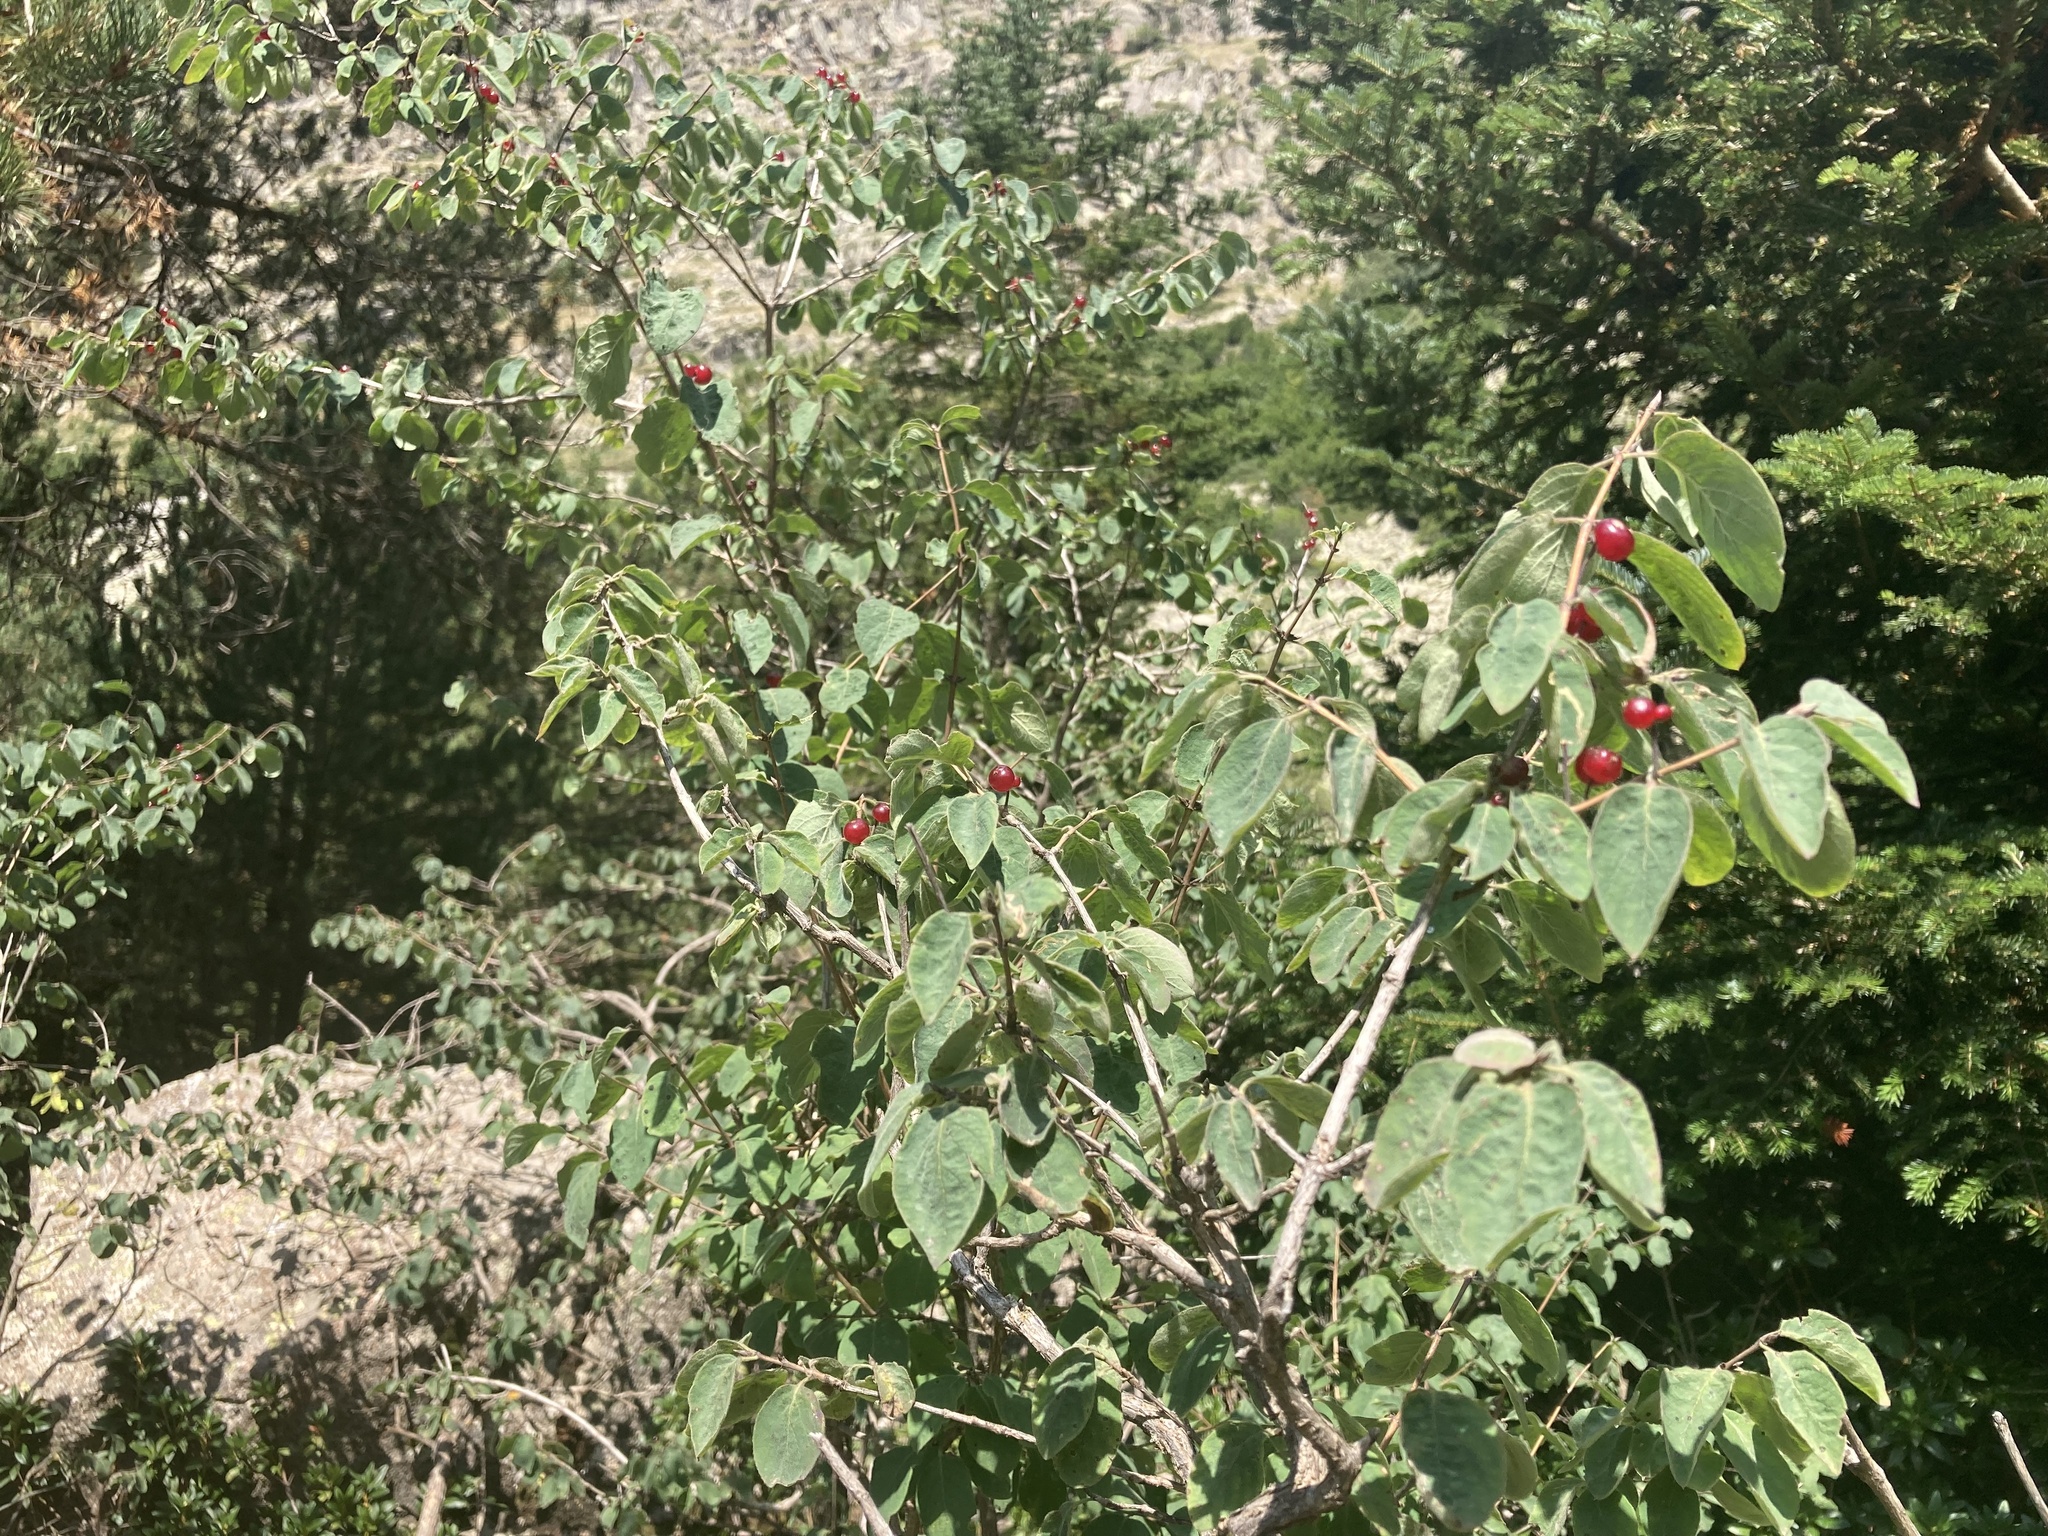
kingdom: Plantae
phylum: Tracheophyta
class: Magnoliopsida
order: Dipsacales
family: Caprifoliaceae
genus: Lonicera
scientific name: Lonicera xylosteum
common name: Fly honeysuckle
